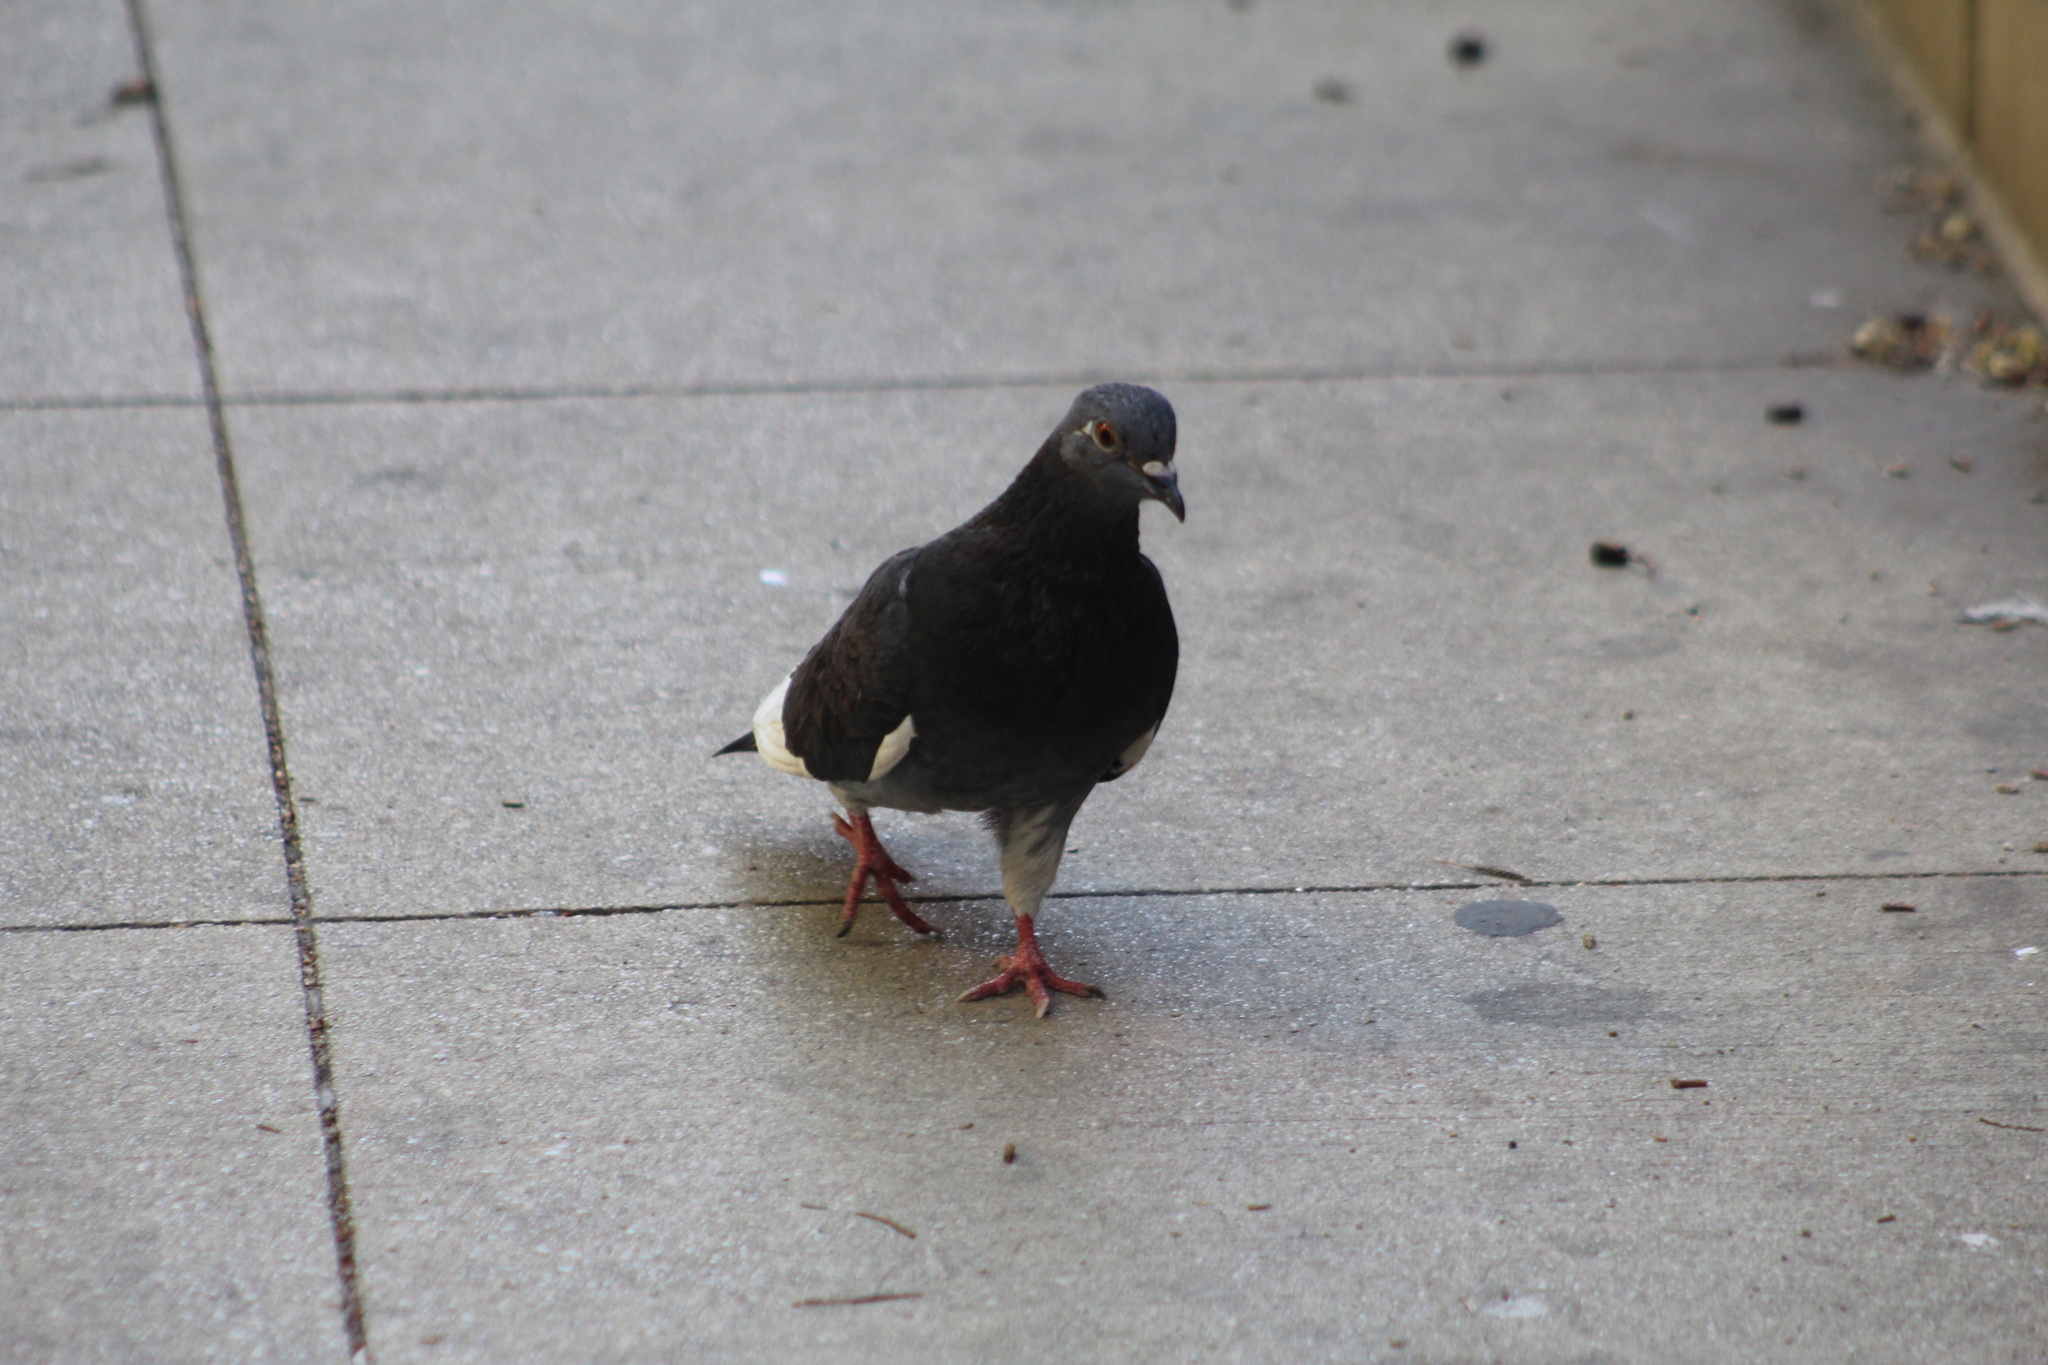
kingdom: Animalia
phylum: Chordata
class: Aves
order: Columbiformes
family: Columbidae
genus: Columba
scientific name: Columba livia
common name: Rock pigeon
